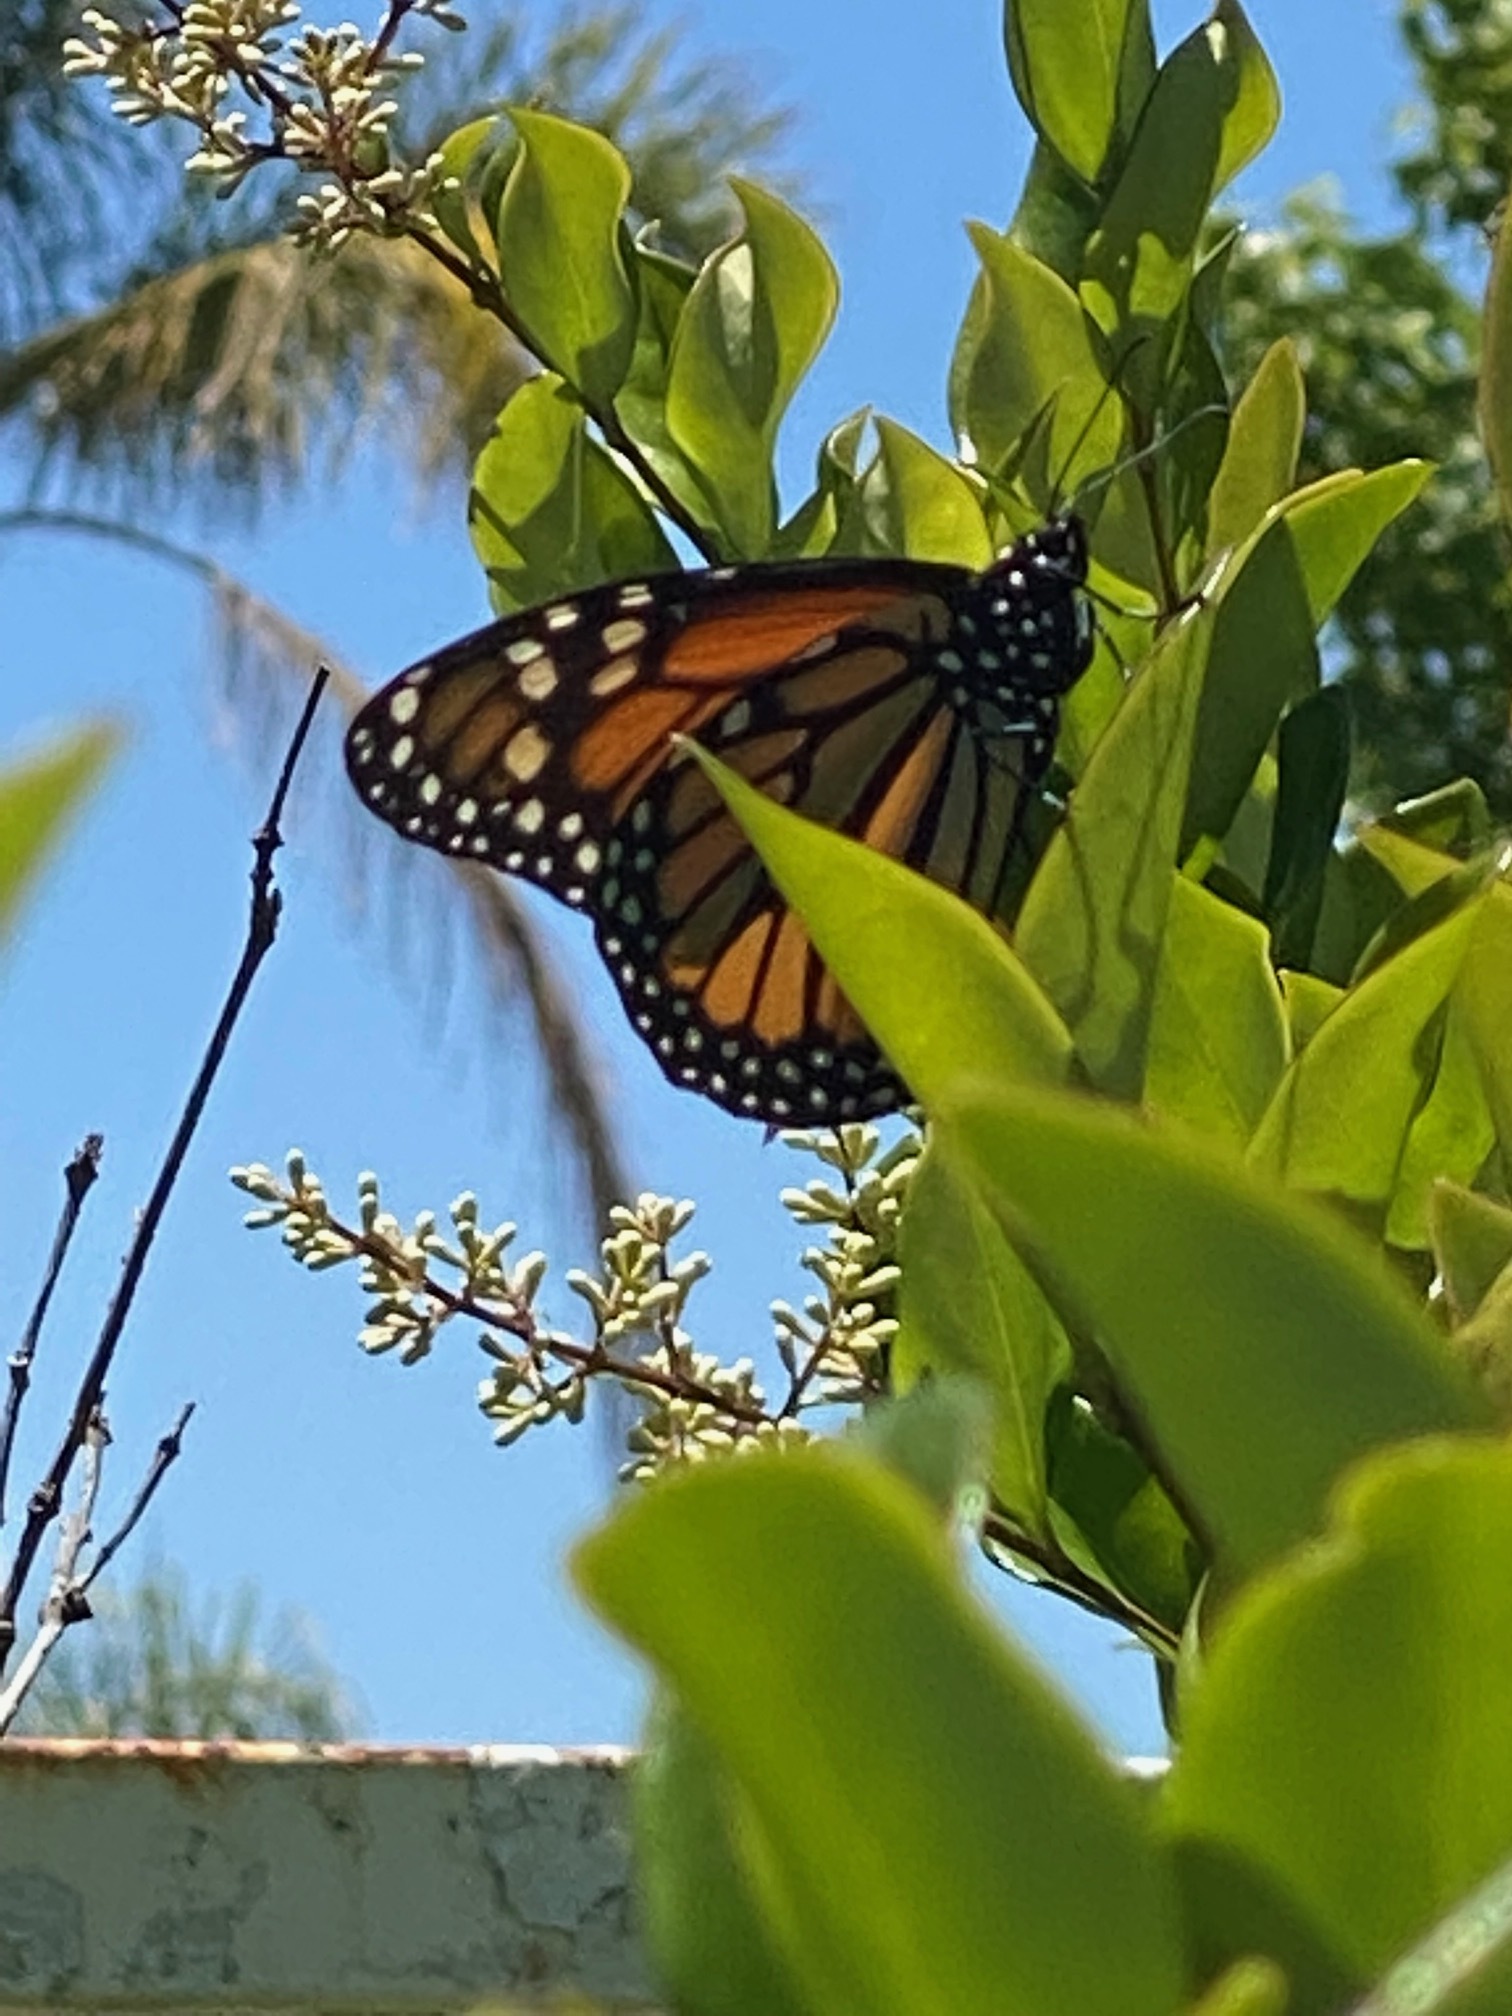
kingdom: Animalia
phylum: Arthropoda
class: Insecta
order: Lepidoptera
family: Nymphalidae
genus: Danaus
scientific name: Danaus plexippus
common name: Monarch
